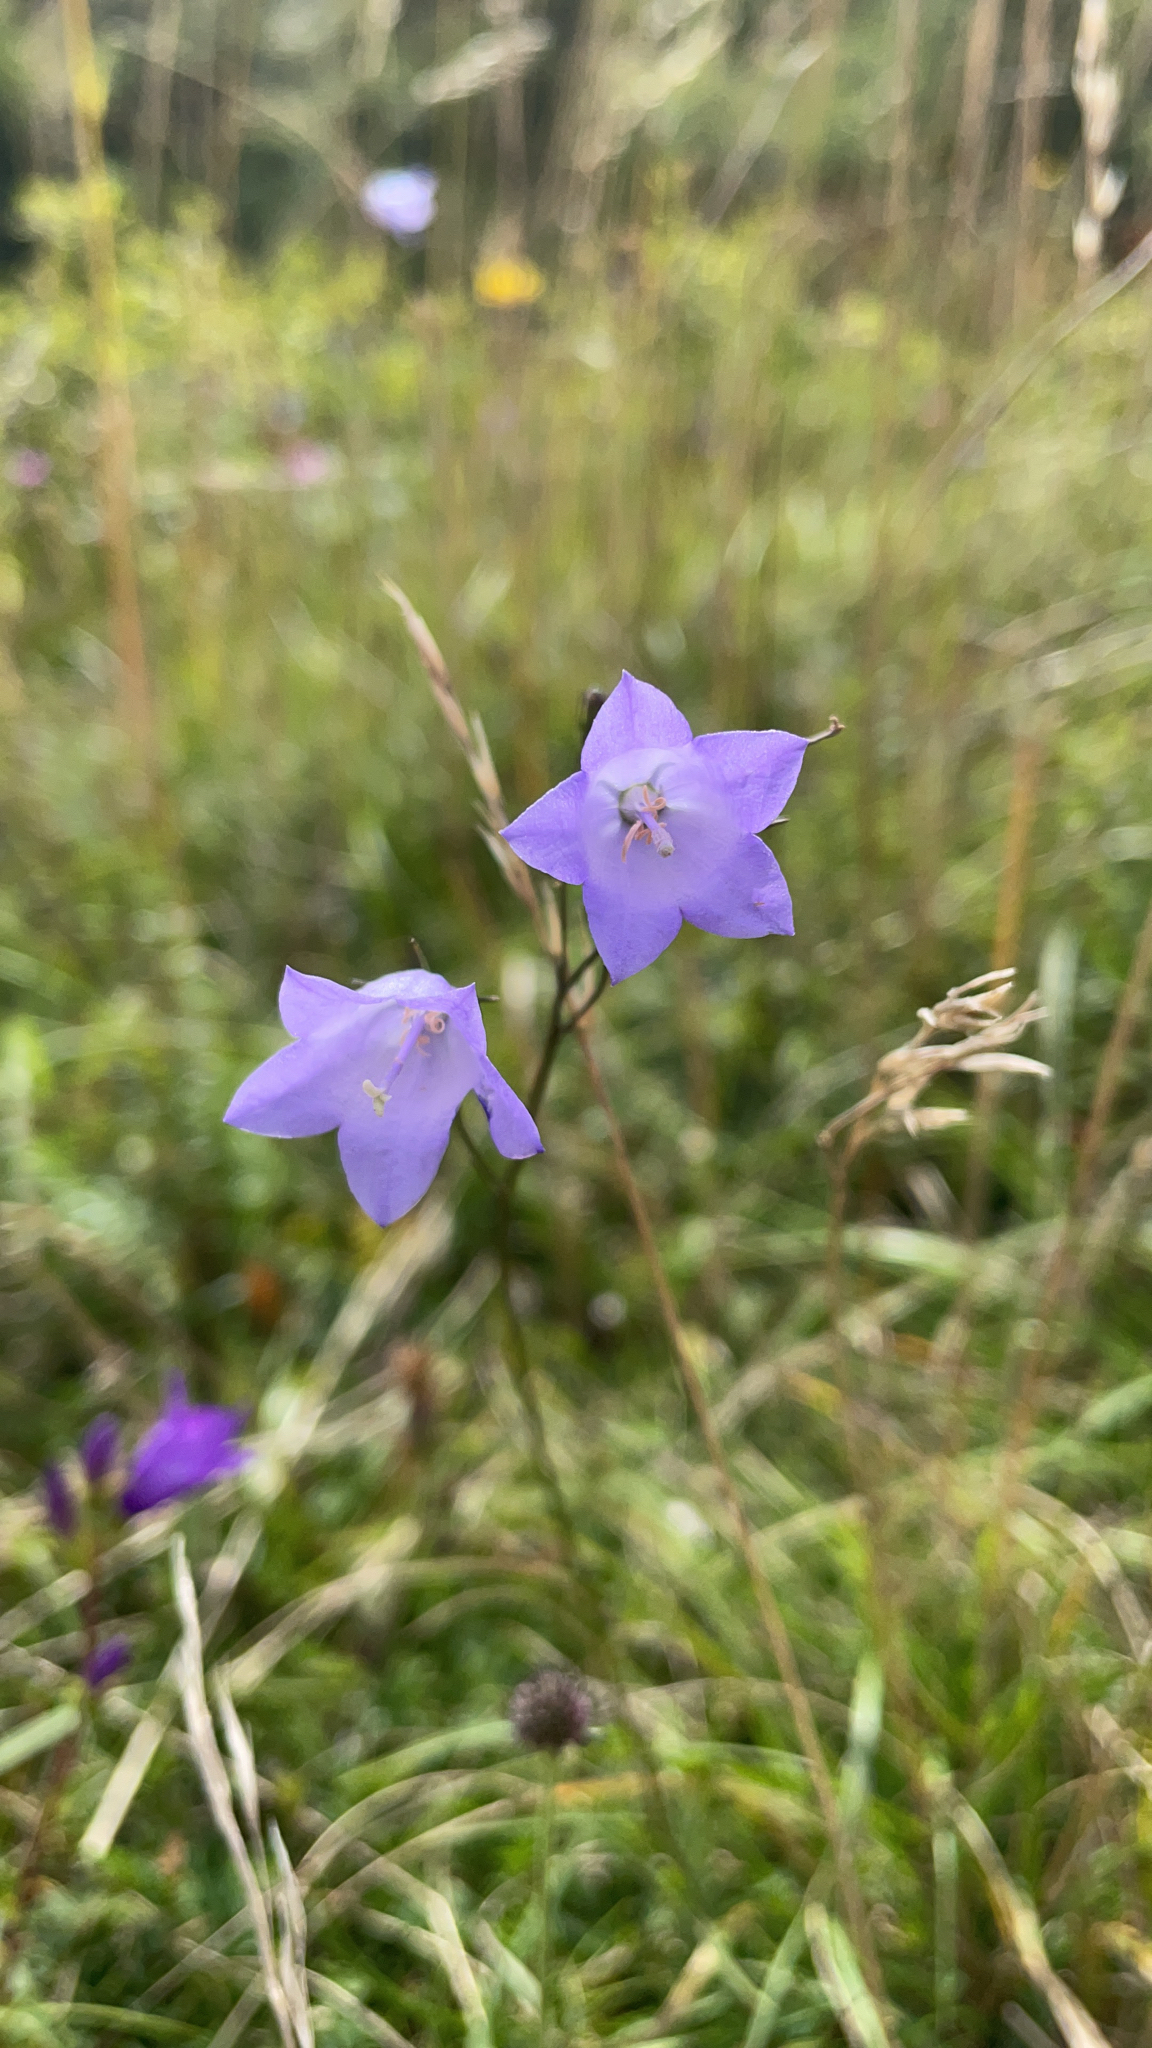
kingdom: Plantae
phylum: Tracheophyta
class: Magnoliopsida
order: Asterales
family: Campanulaceae
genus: Campanula
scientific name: Campanula rotundifolia
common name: Harebell
